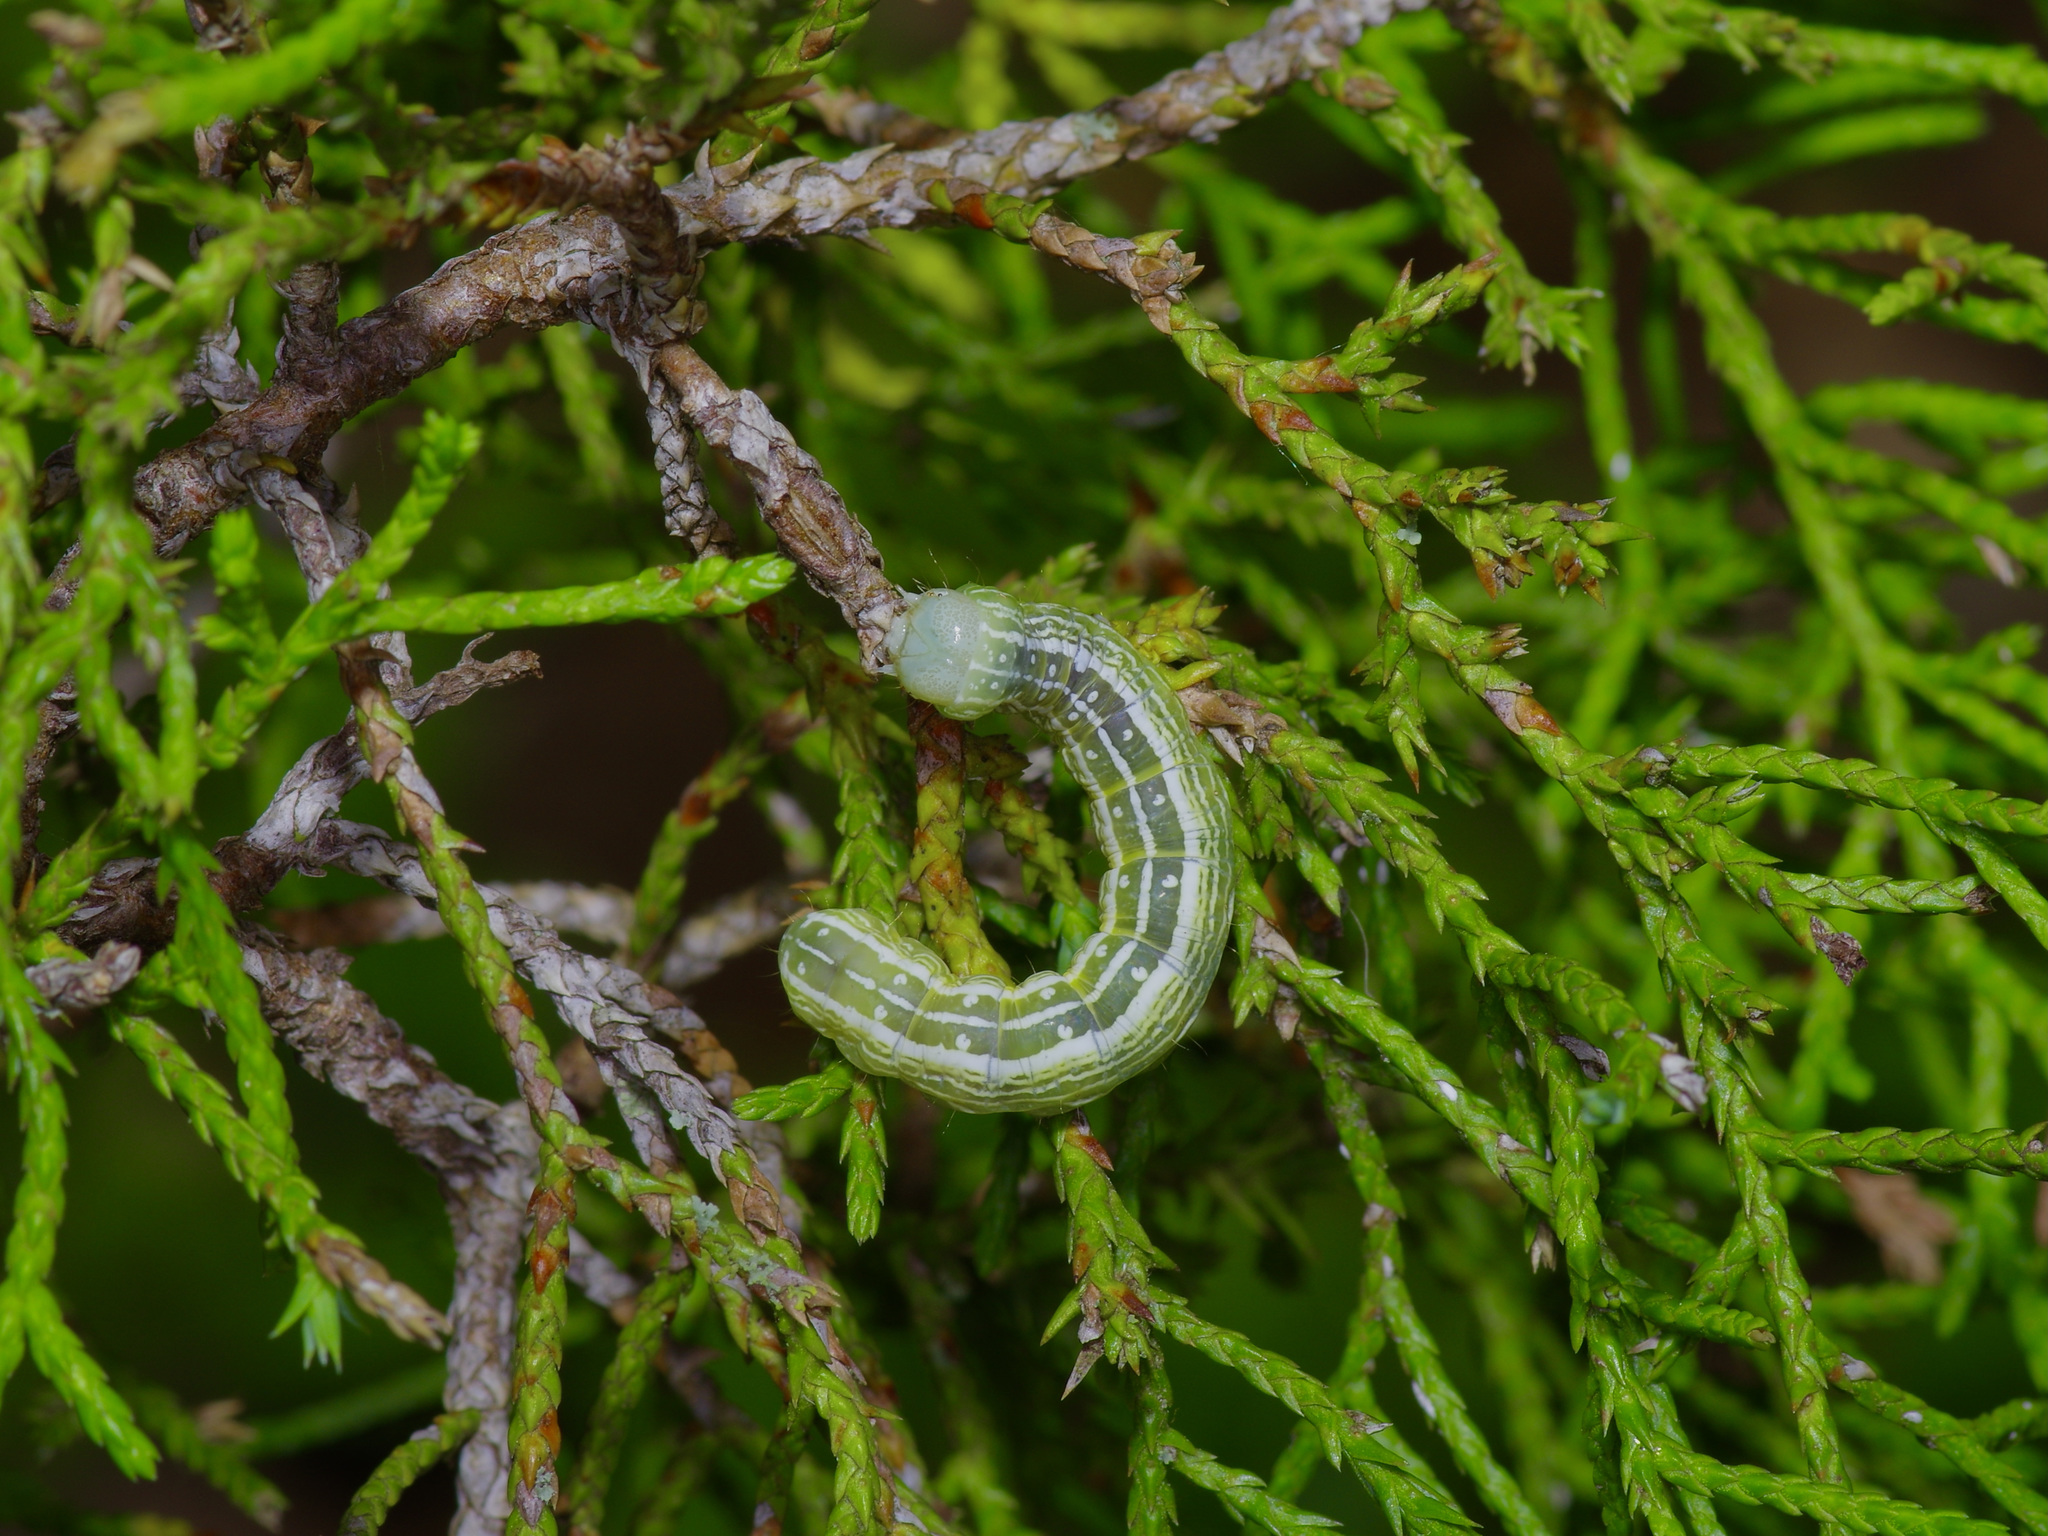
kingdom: Animalia
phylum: Arthropoda
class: Insecta
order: Lepidoptera
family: Noctuidae
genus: Kocakina
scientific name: Kocakina fidelis
